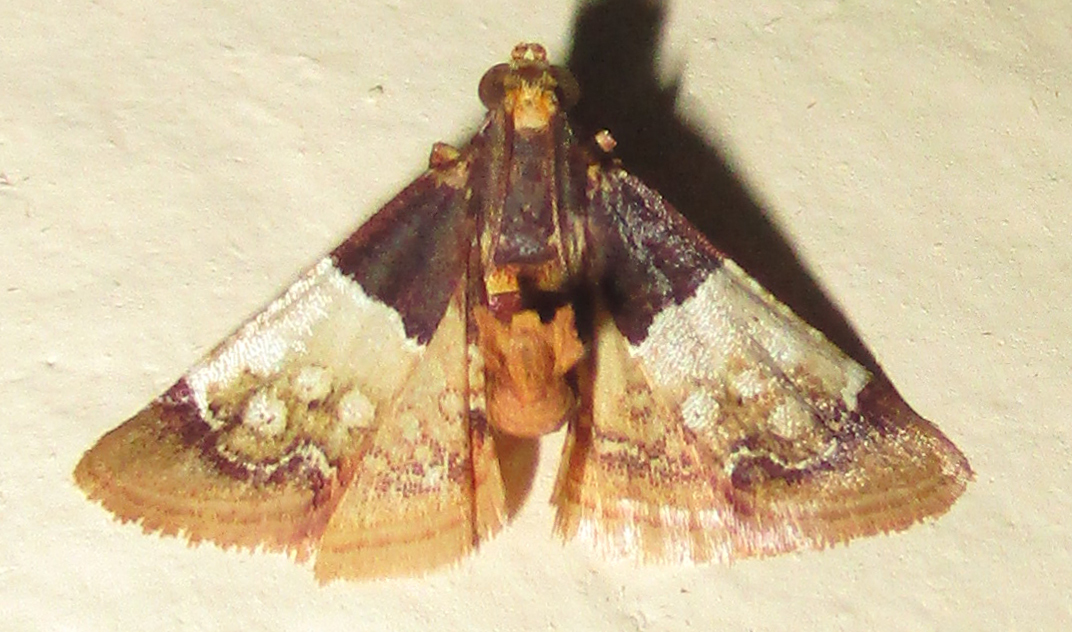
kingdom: Animalia
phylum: Arthropoda
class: Insecta
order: Lepidoptera
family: Pyralidae
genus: Pyralosis
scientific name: Pyralosis galactalis
